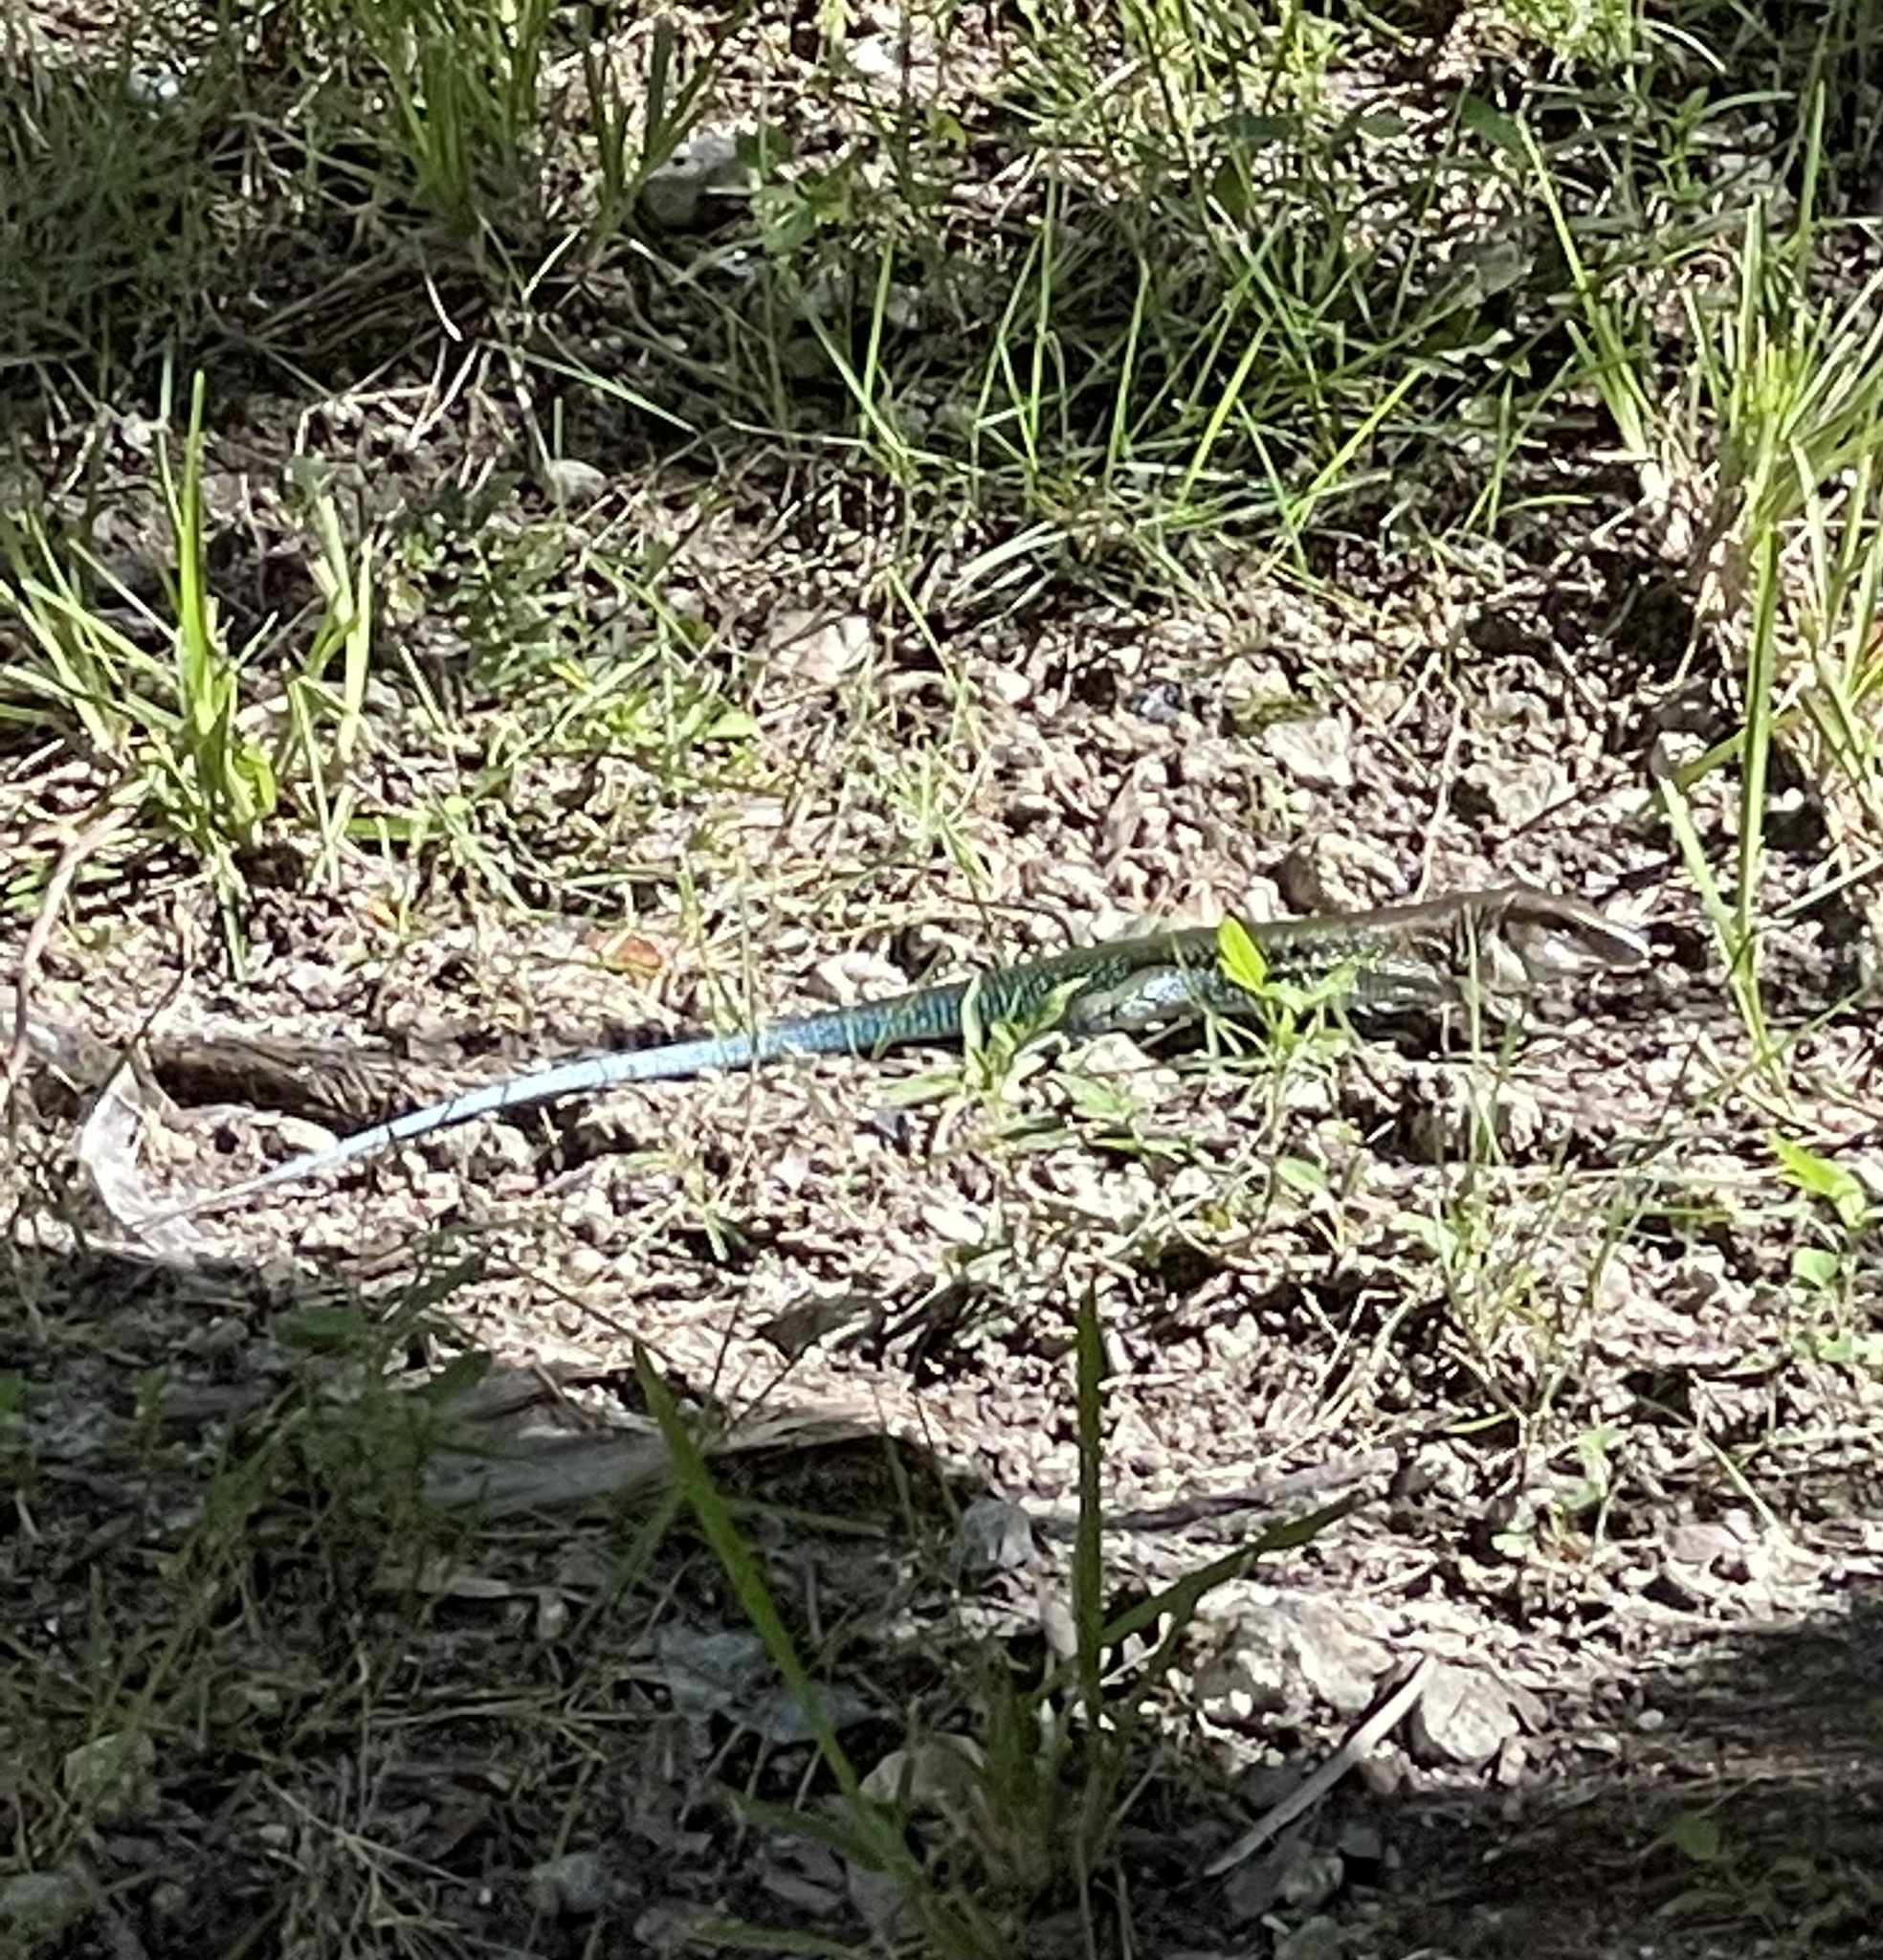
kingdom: Animalia
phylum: Chordata
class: Squamata
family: Teiidae
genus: Ameiva
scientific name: Ameiva ameiva
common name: Giant ameiva
